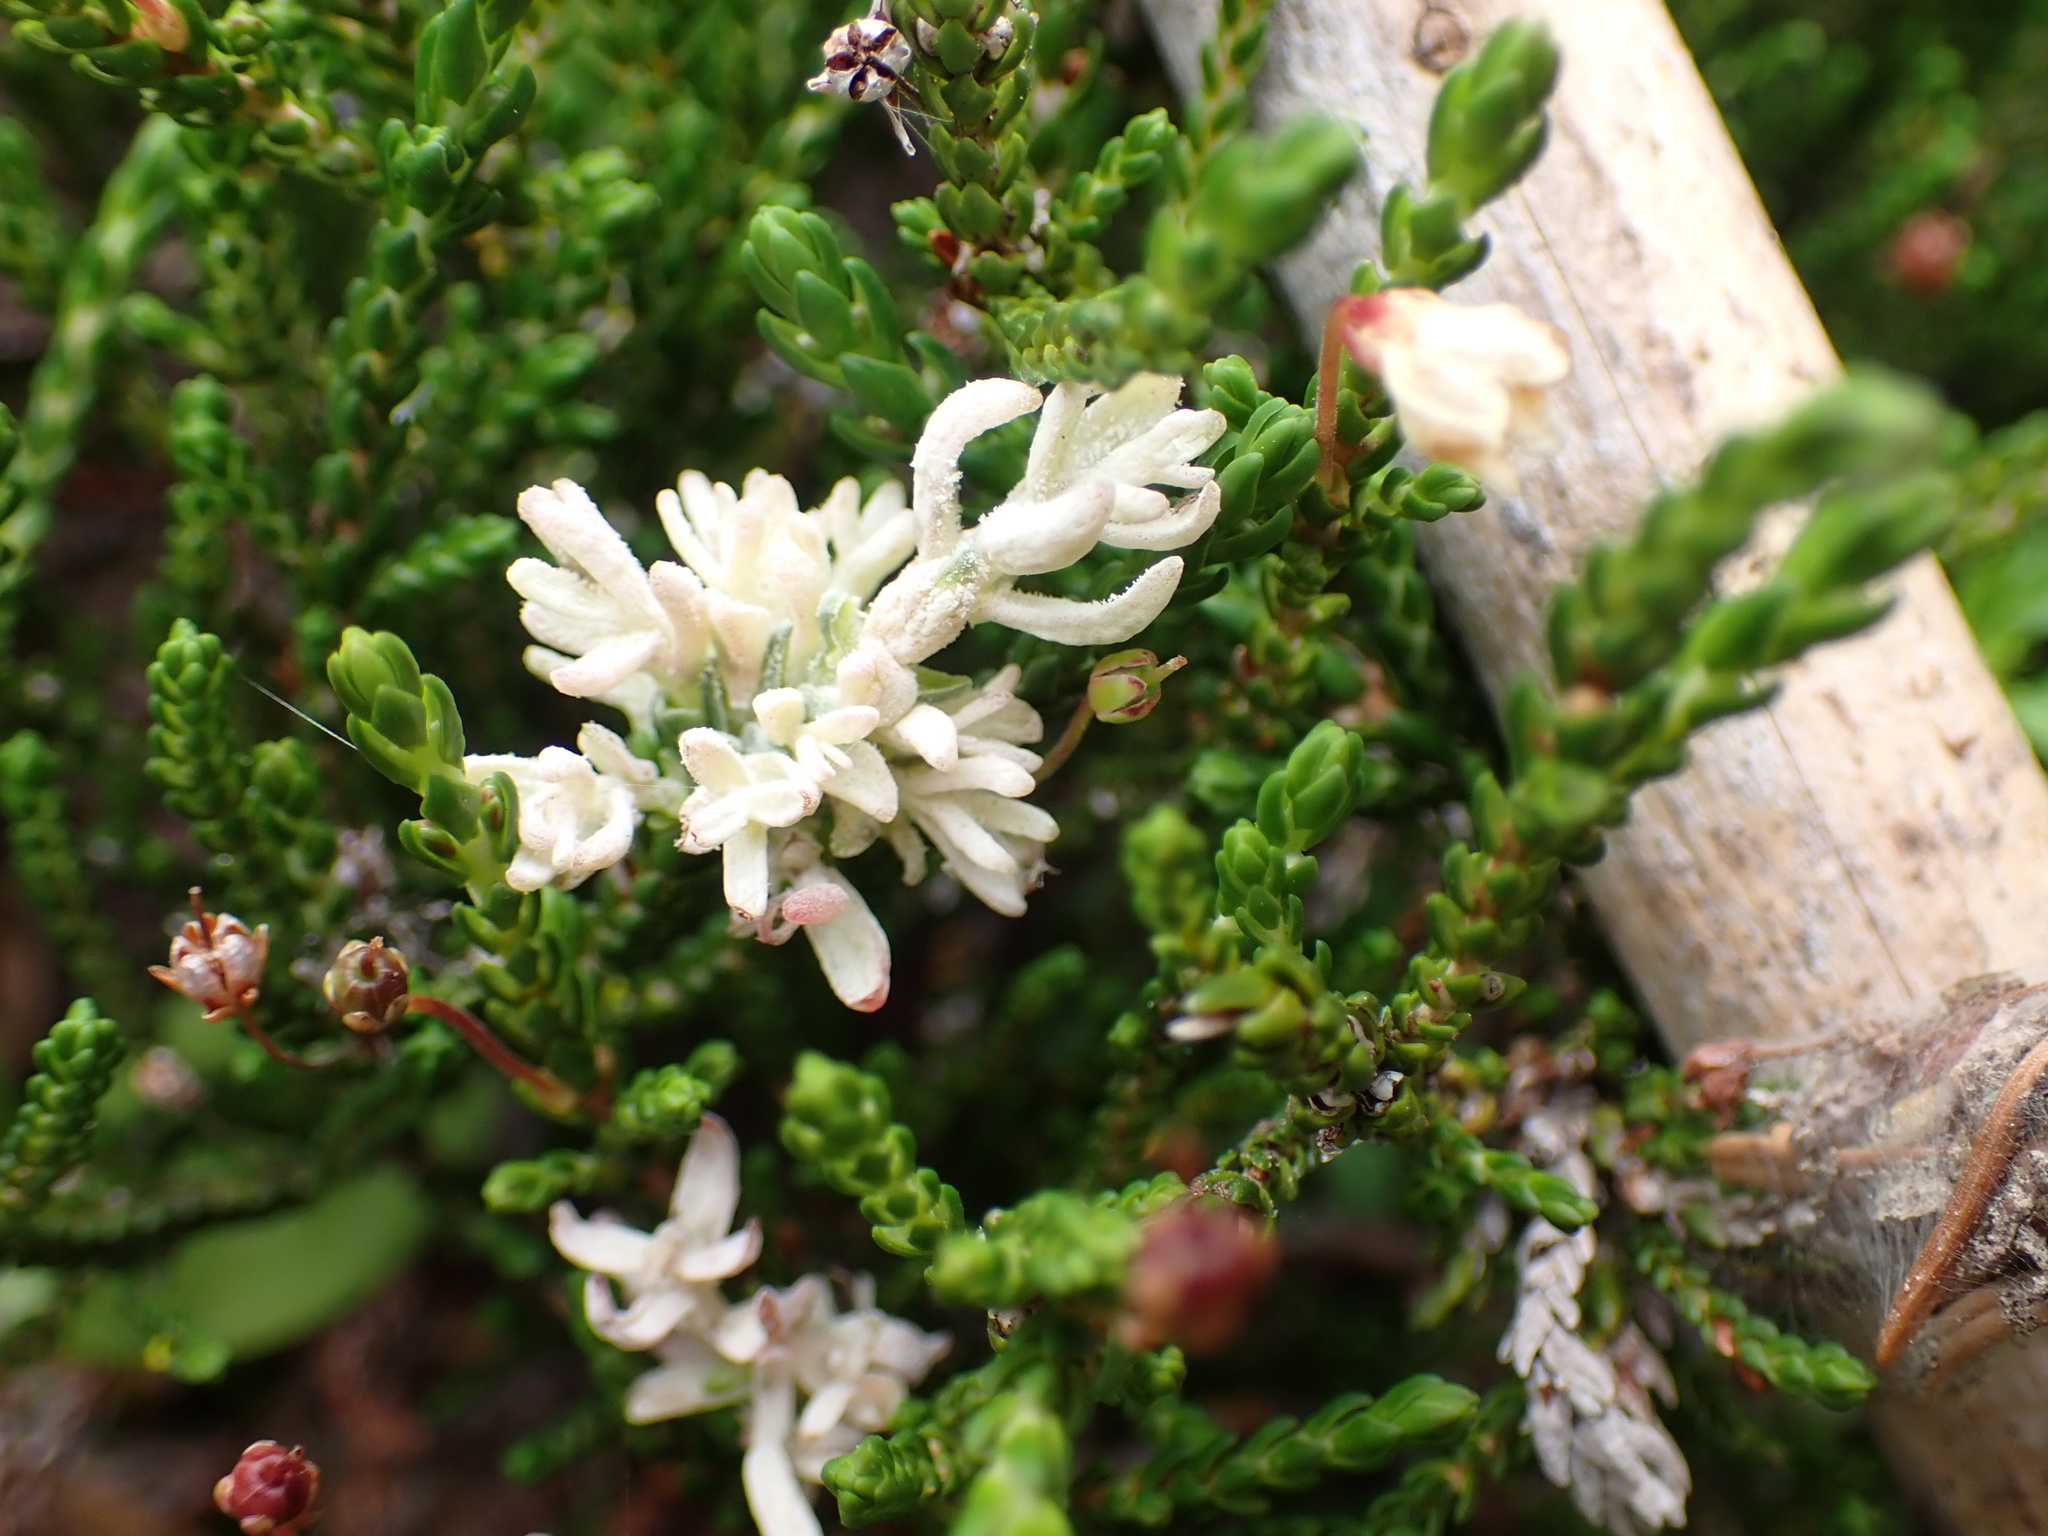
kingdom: Fungi
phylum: Basidiomycota
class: Exobasidiomycetes
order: Exobasidiales
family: Exobasidiaceae
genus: Exobasidium
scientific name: Exobasidium cassiopes
